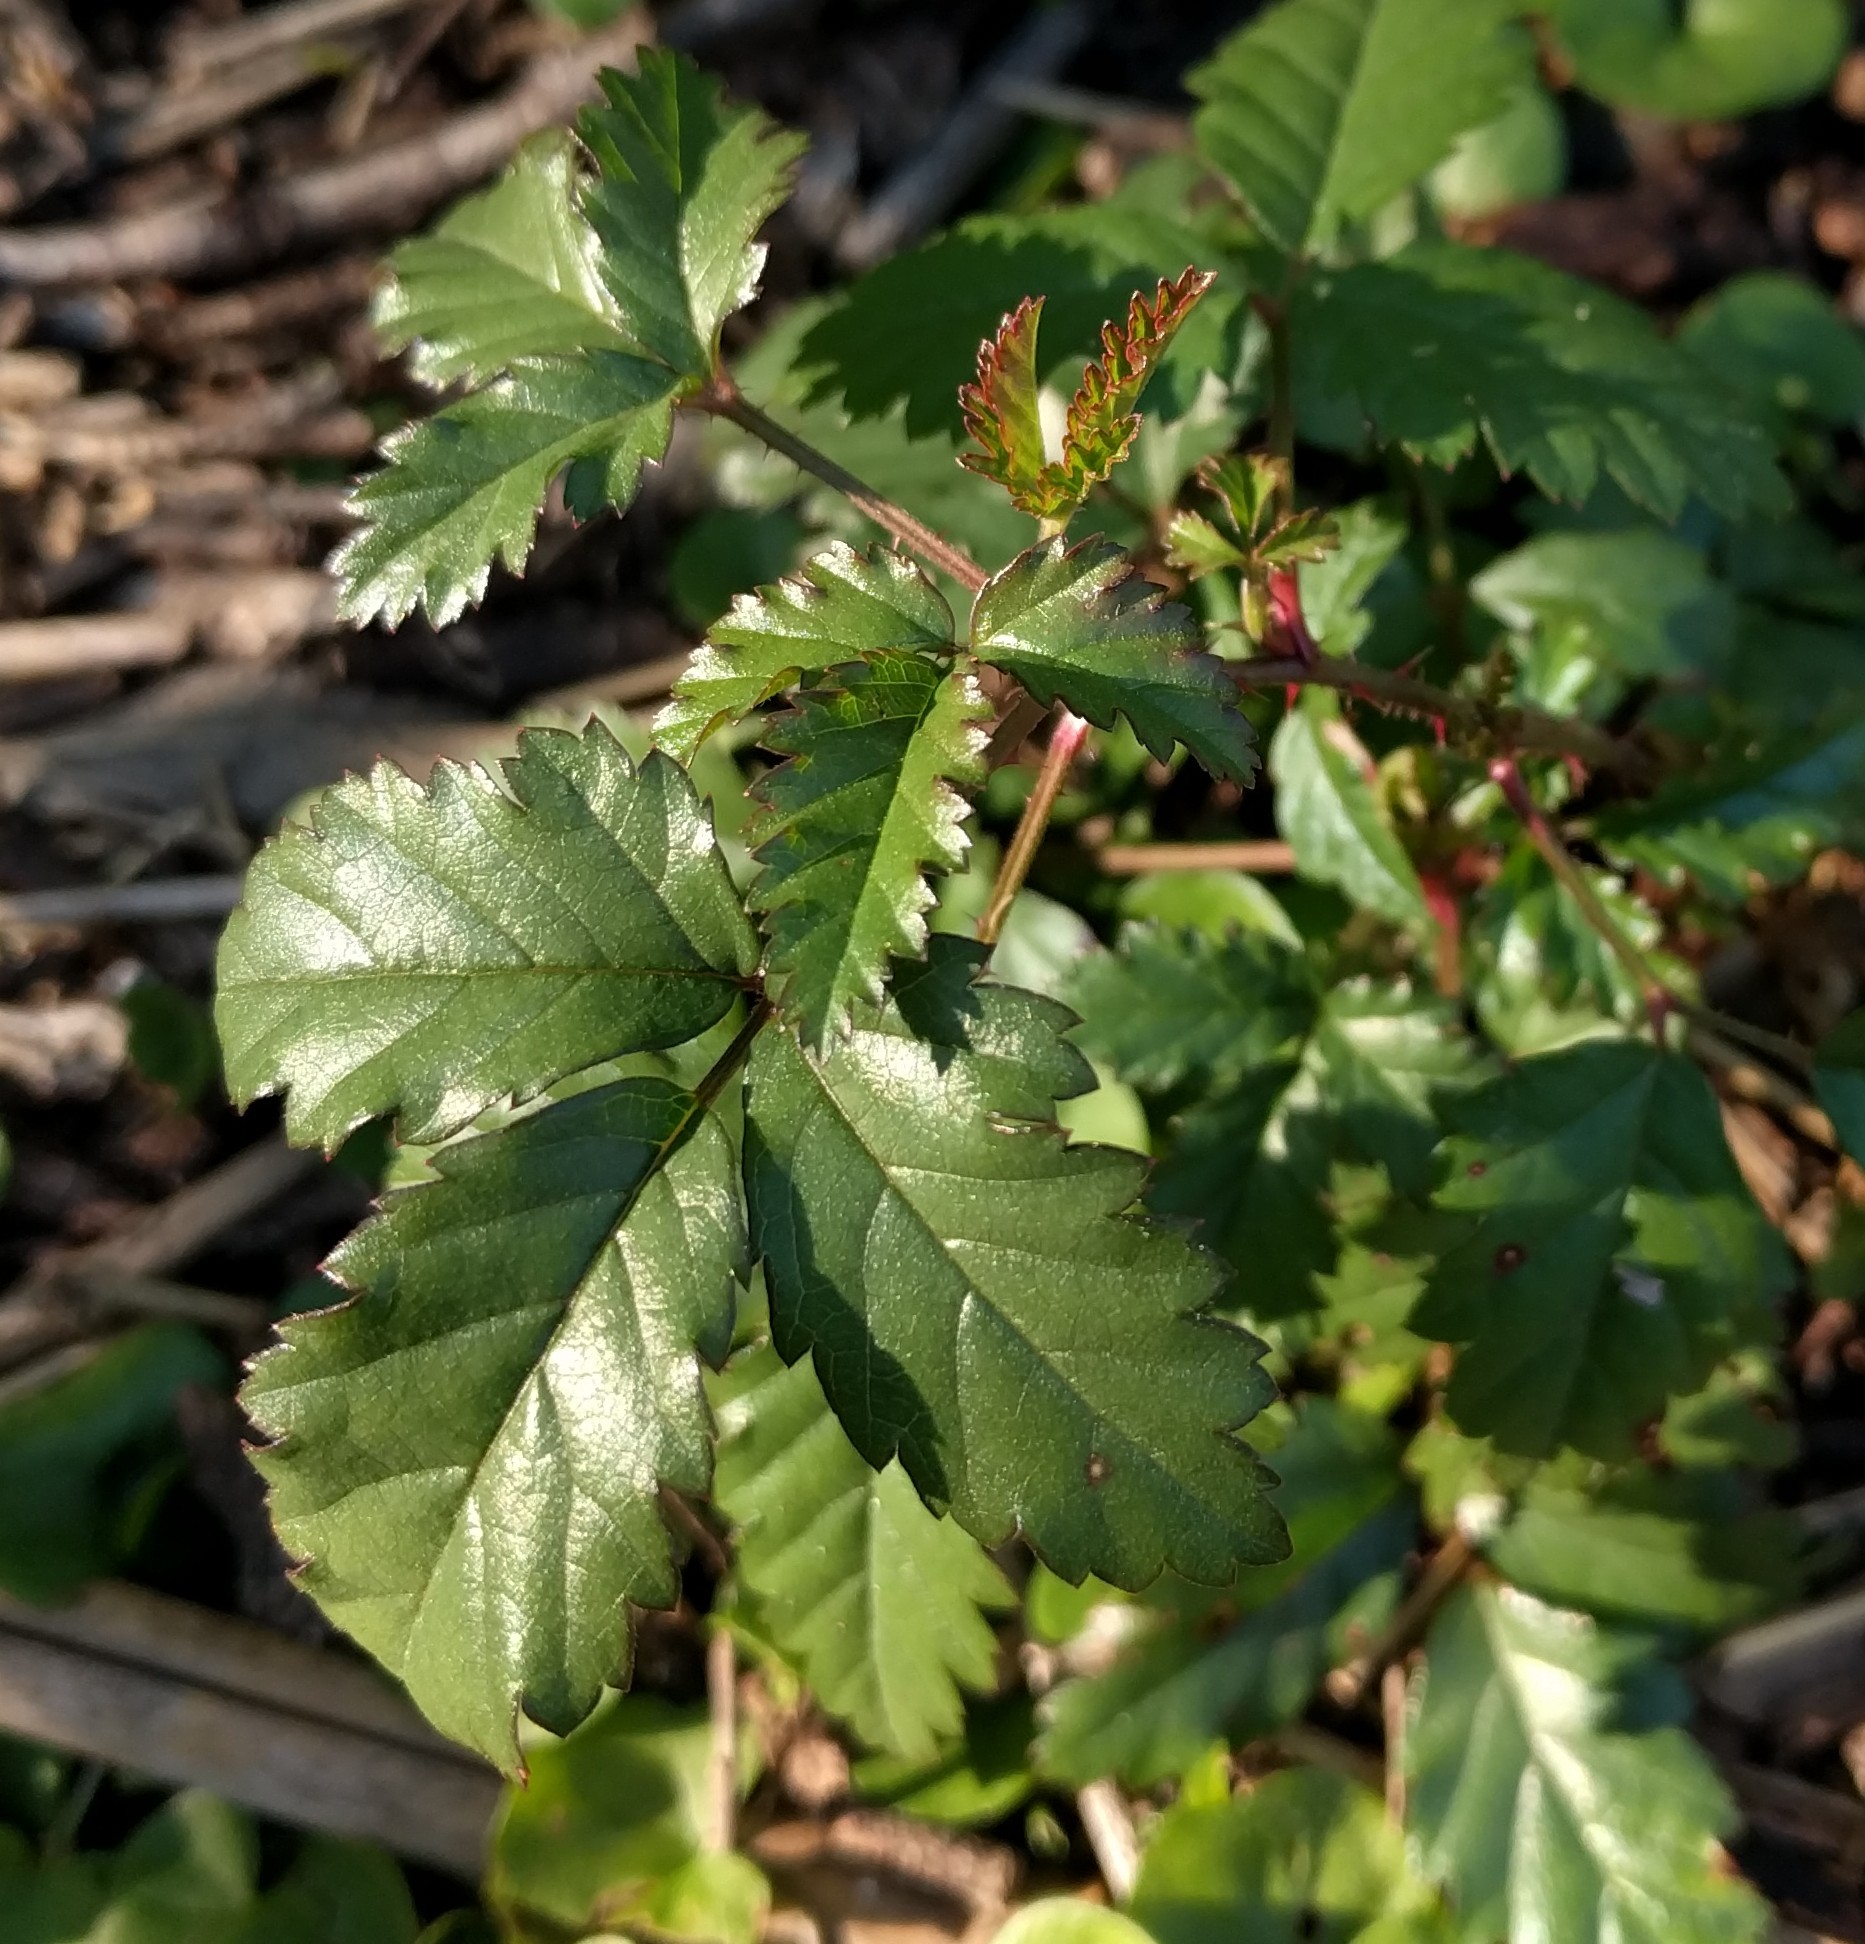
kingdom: Plantae
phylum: Tracheophyta
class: Magnoliopsida
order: Rosales
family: Rosaceae
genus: Rubus
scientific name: Rubus trivialis
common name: Southern dewberry
